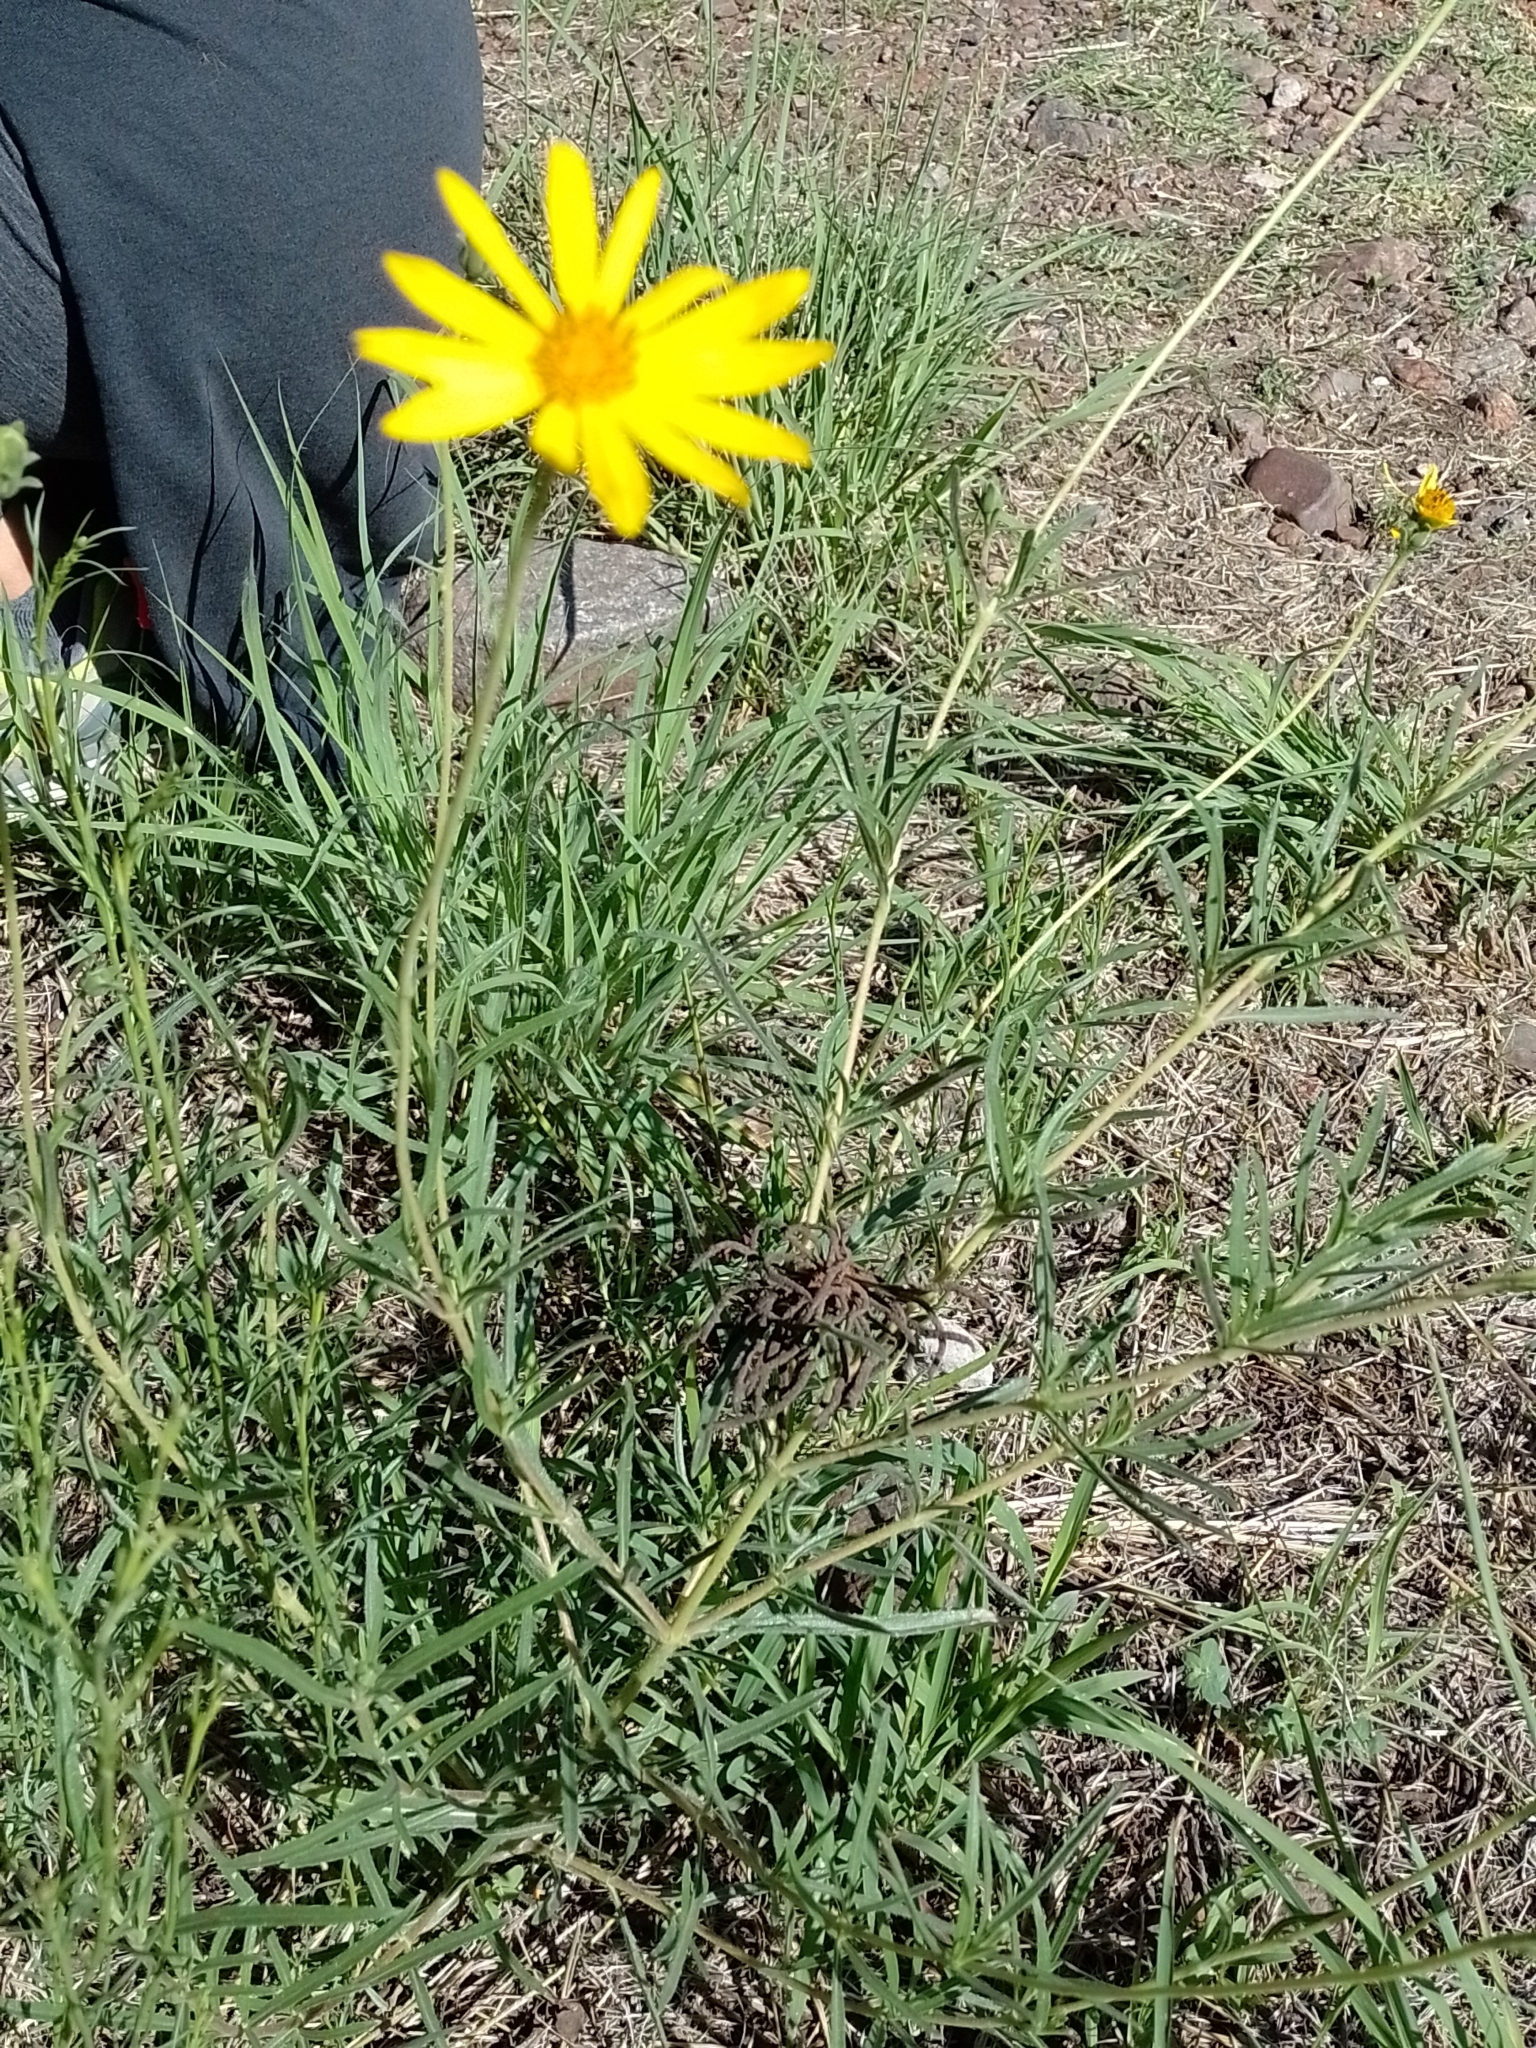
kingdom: Plantae
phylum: Tracheophyta
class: Magnoliopsida
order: Asterales
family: Asteraceae
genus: Zexmenia
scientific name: Zexmenia buphtalmiflora
